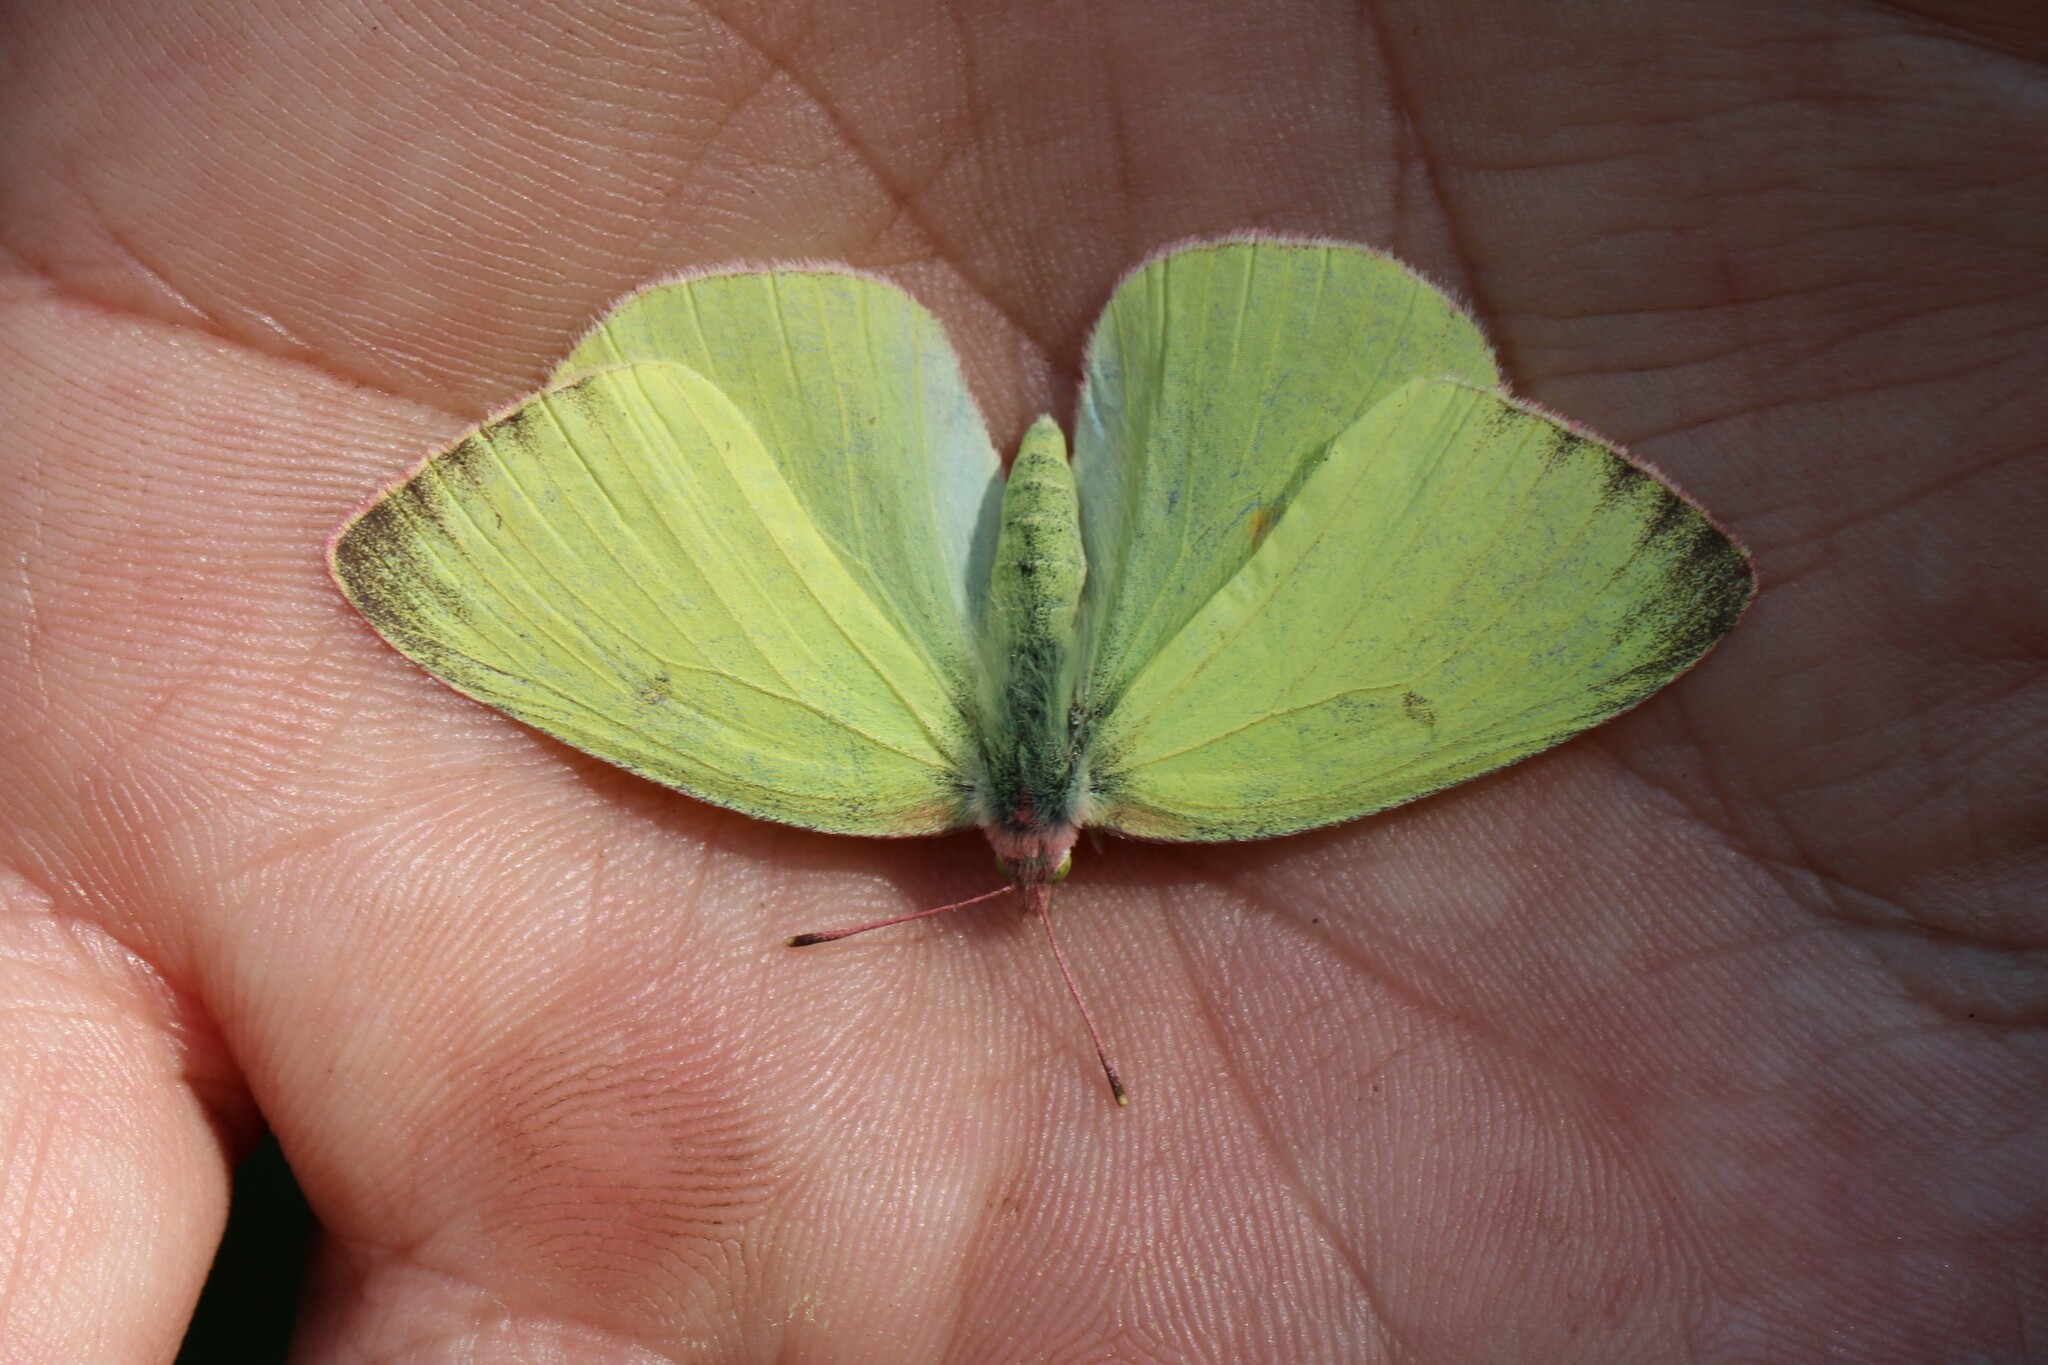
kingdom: Animalia
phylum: Arthropoda
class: Insecta
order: Lepidoptera
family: Pieridae
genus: Colias
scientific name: Colias interior
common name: Pink-edged sulphur
